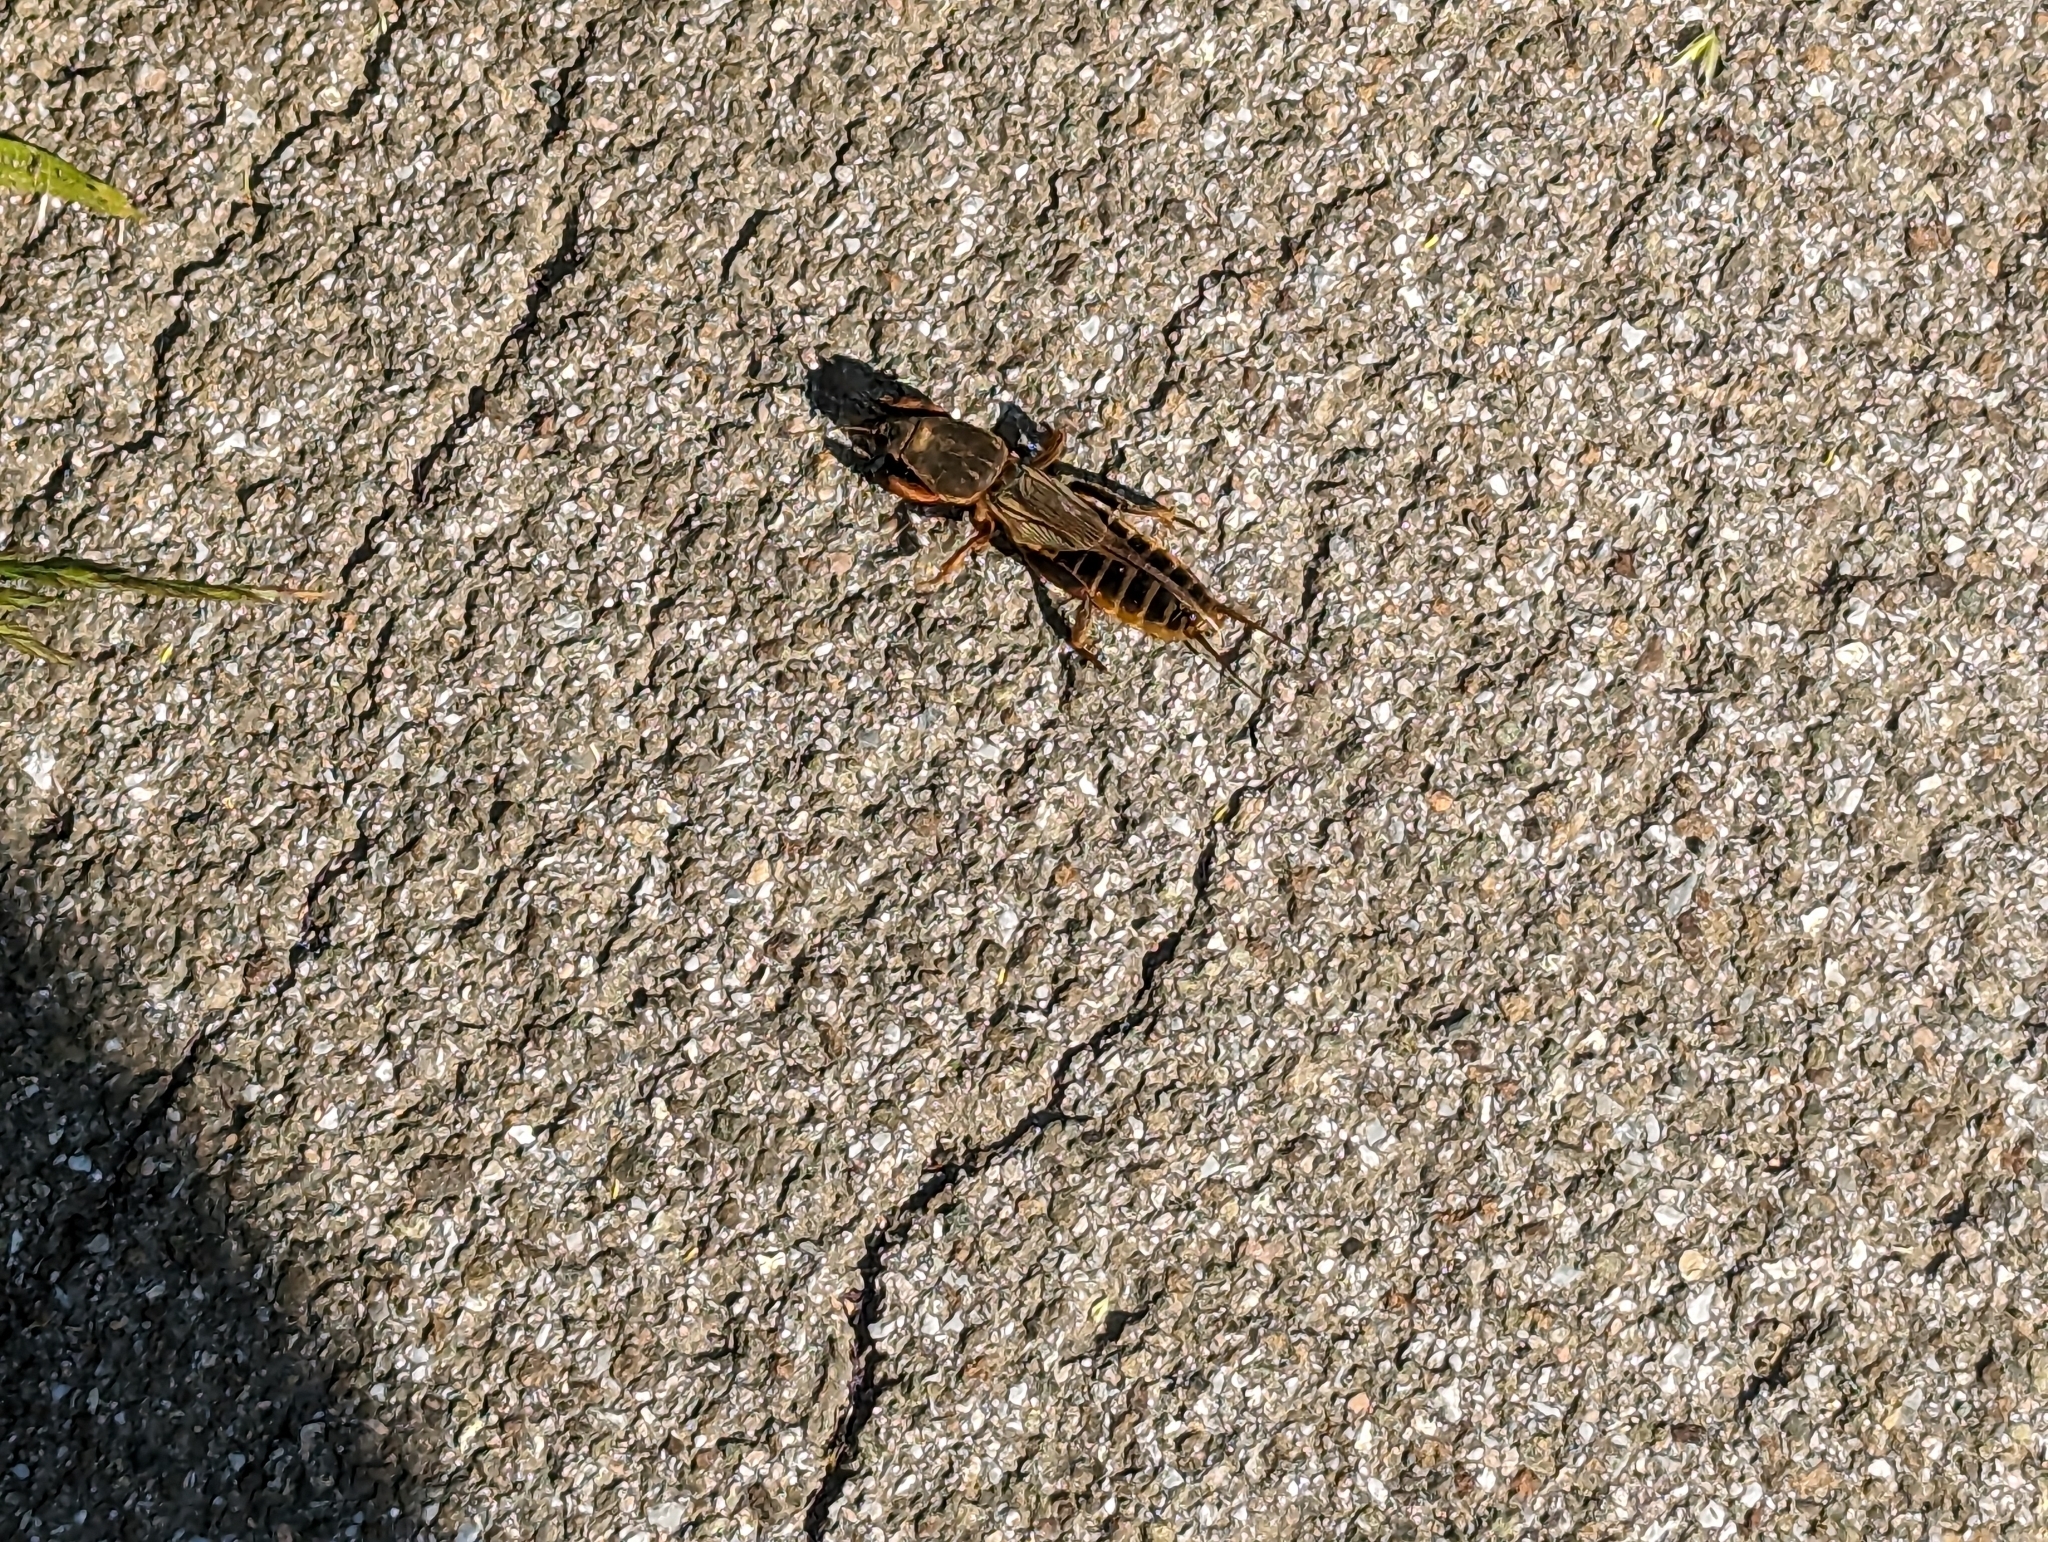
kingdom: Animalia
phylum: Arthropoda
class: Insecta
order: Orthoptera
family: Gryllotalpidae
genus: Gryllotalpa
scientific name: Gryllotalpa gryllotalpa
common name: European mole cricket
